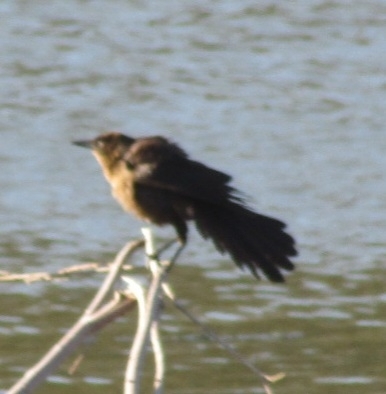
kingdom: Animalia
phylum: Chordata
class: Aves
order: Passeriformes
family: Icteridae
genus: Quiscalus
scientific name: Quiscalus mexicanus
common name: Great-tailed grackle
